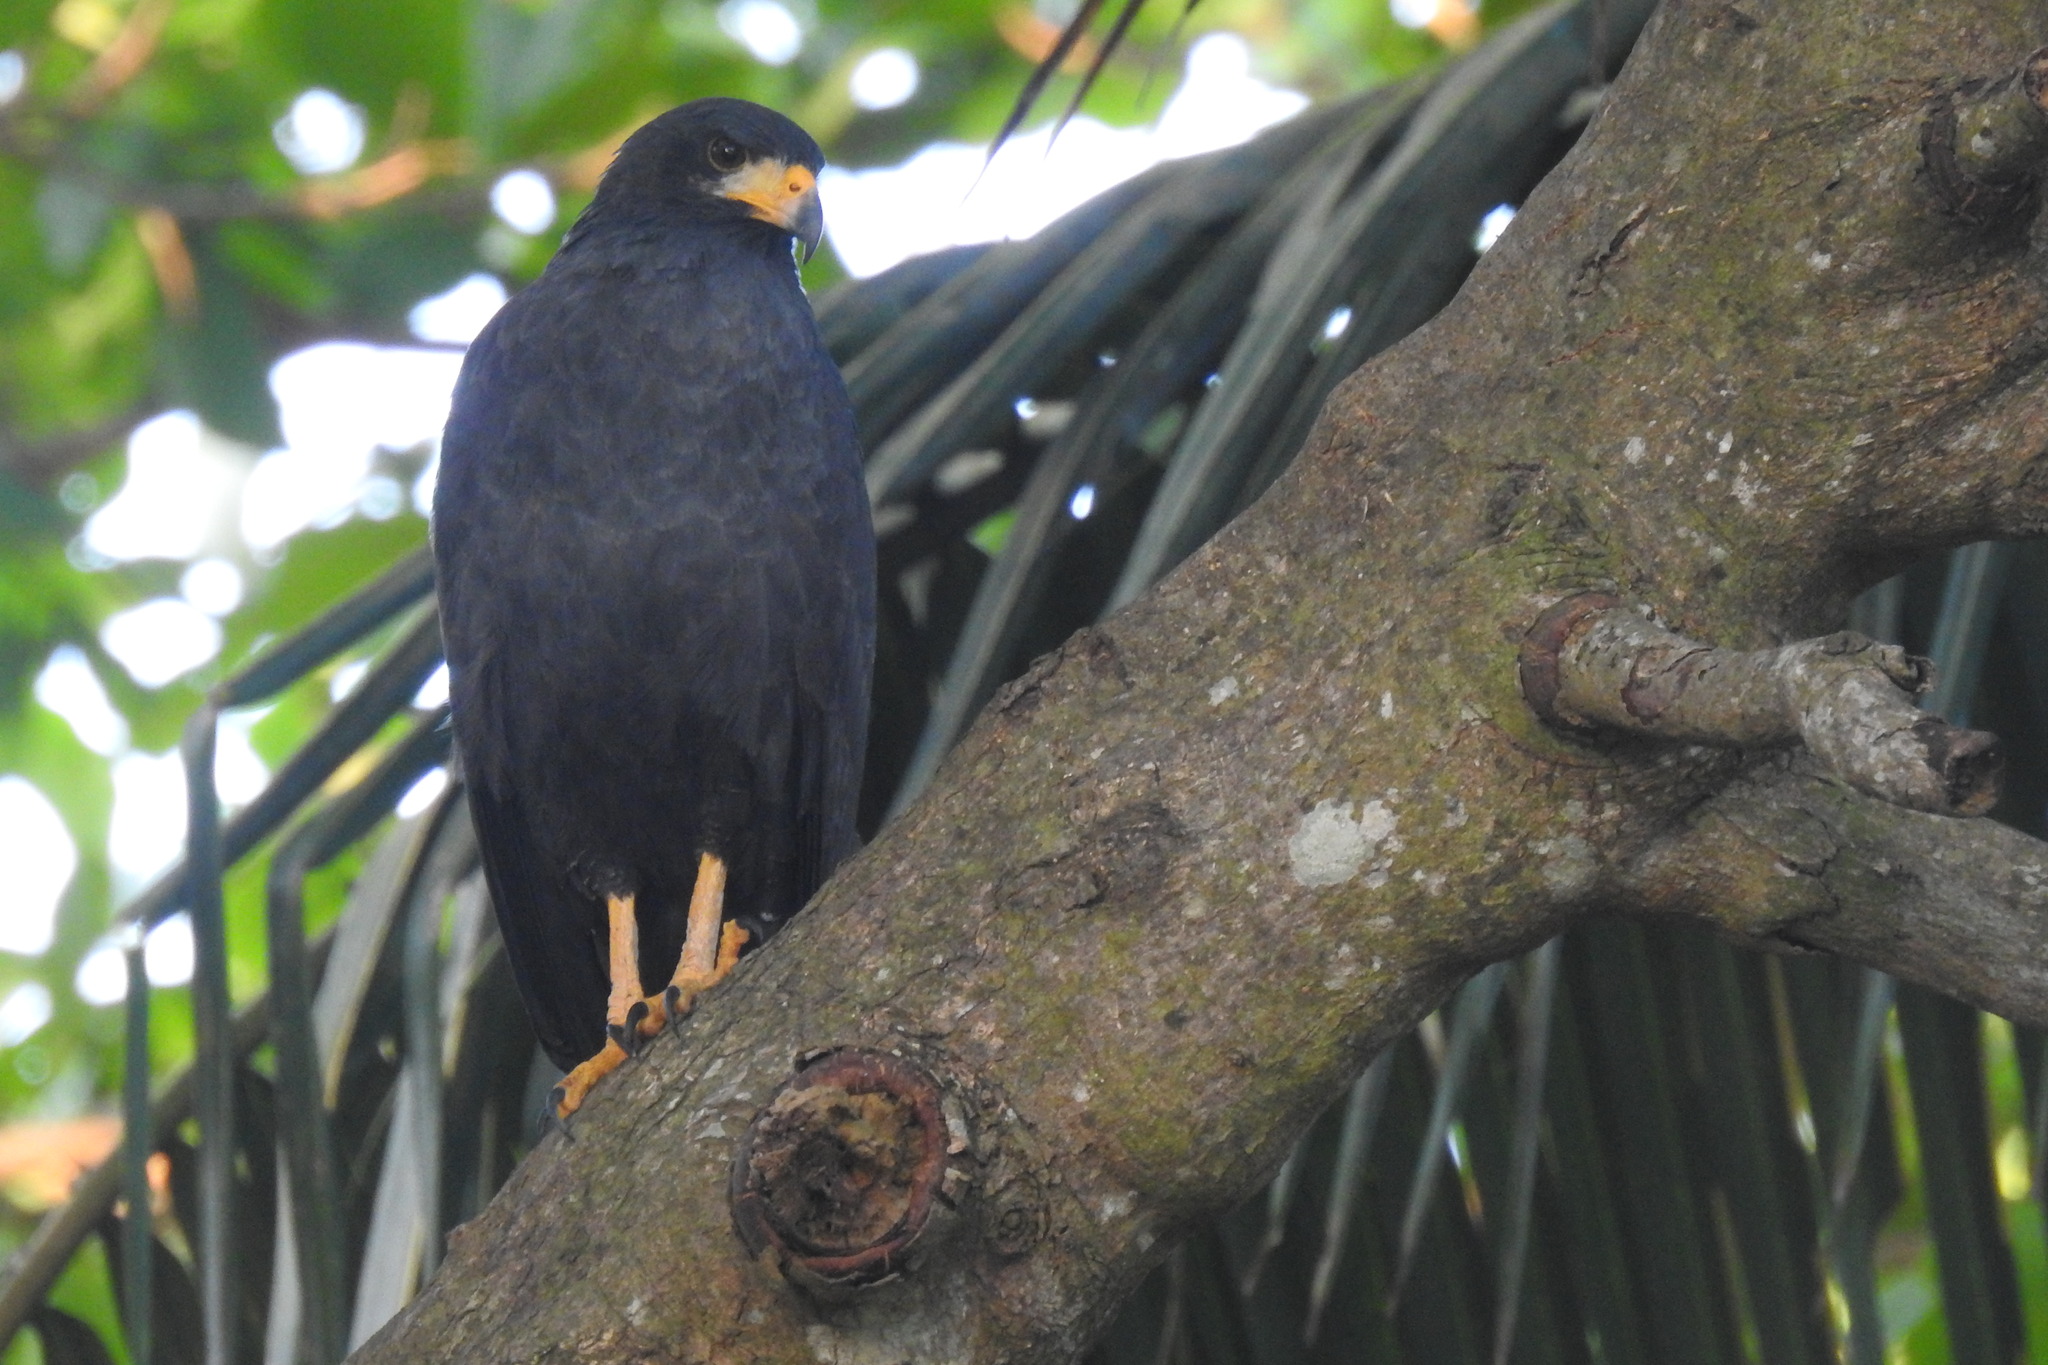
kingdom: Animalia
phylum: Chordata
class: Aves
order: Accipitriformes
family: Accipitridae
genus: Buteogallus
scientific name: Buteogallus anthracinus
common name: Common black hawk
